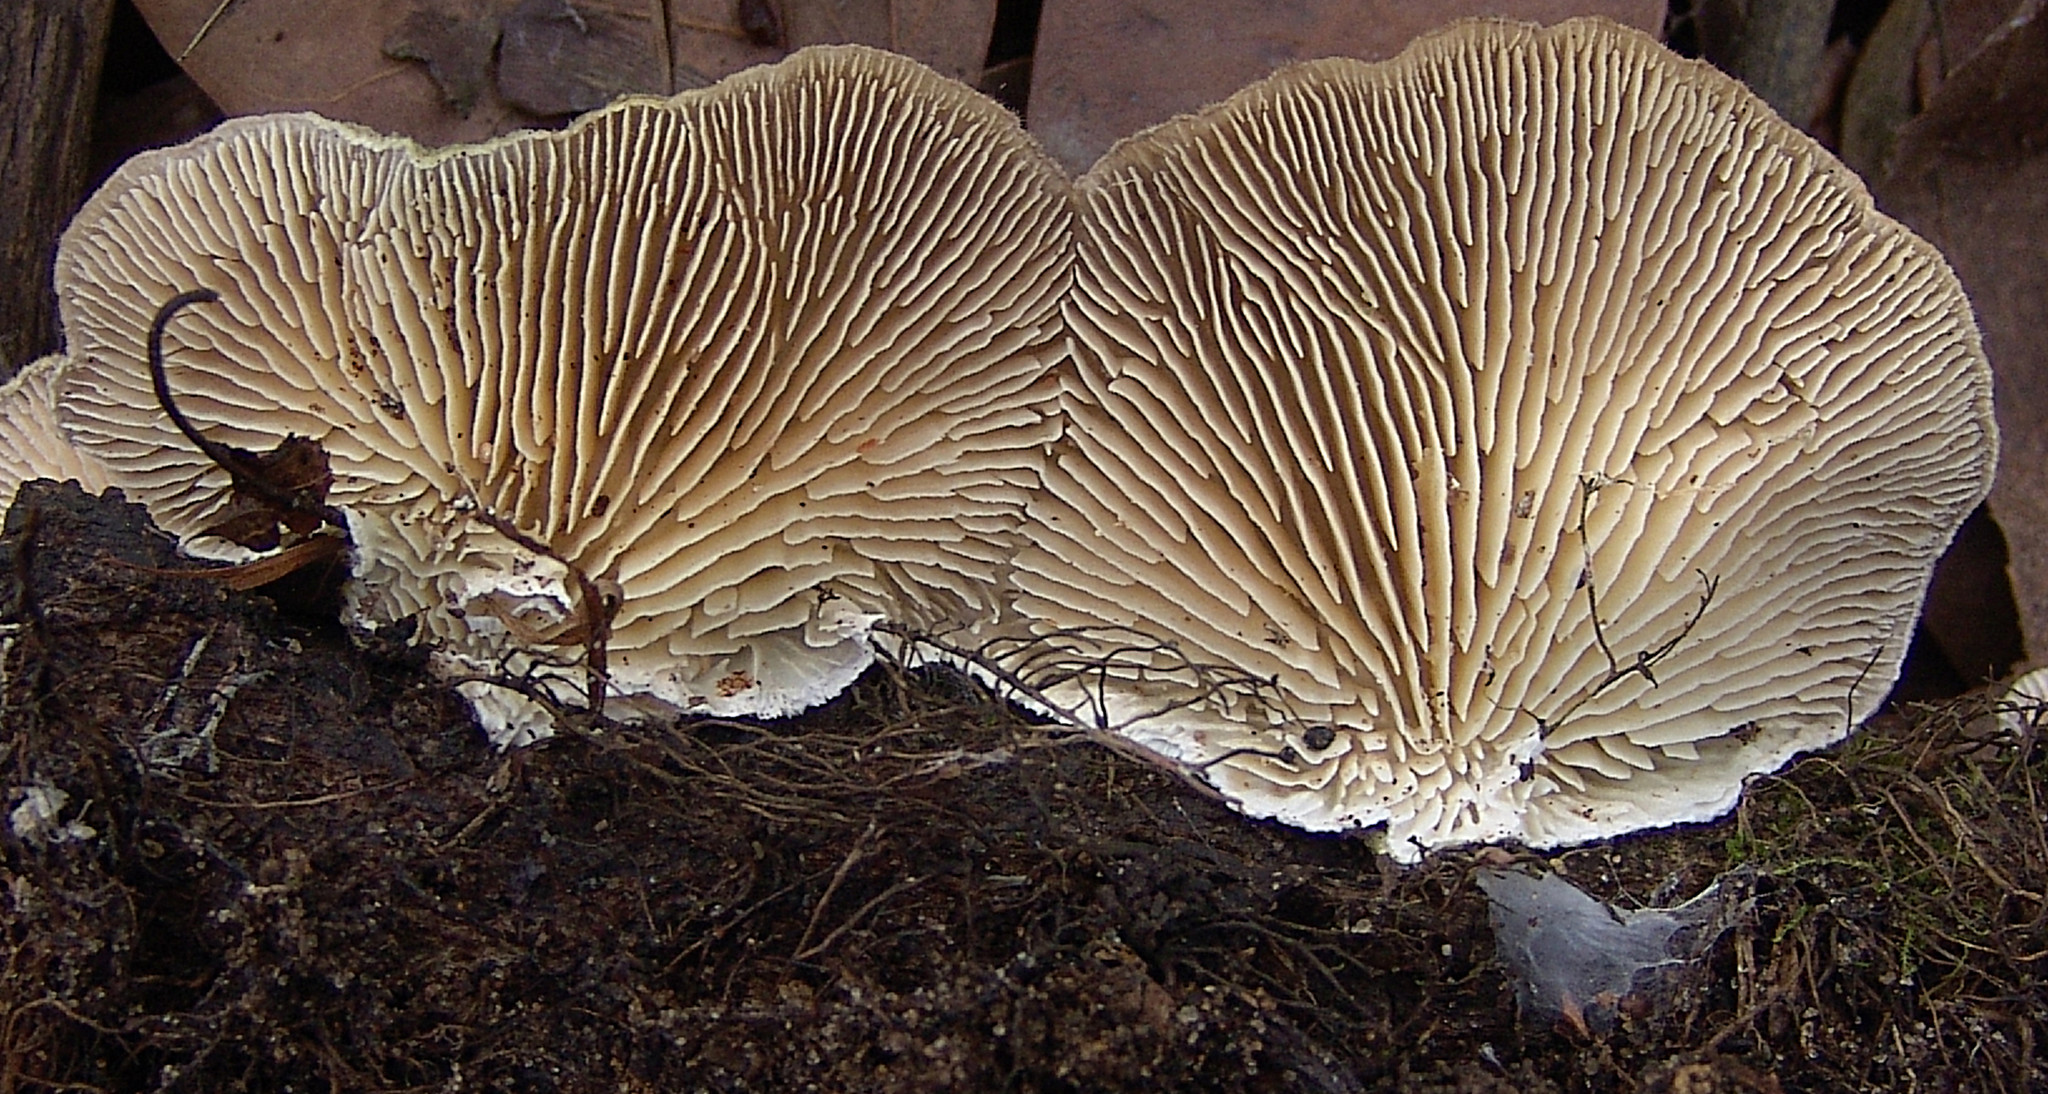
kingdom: Fungi
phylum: Basidiomycota
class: Agaricomycetes
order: Polyporales
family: Polyporaceae
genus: Lenzites
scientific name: Lenzites betulinus
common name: Birch mazegill
